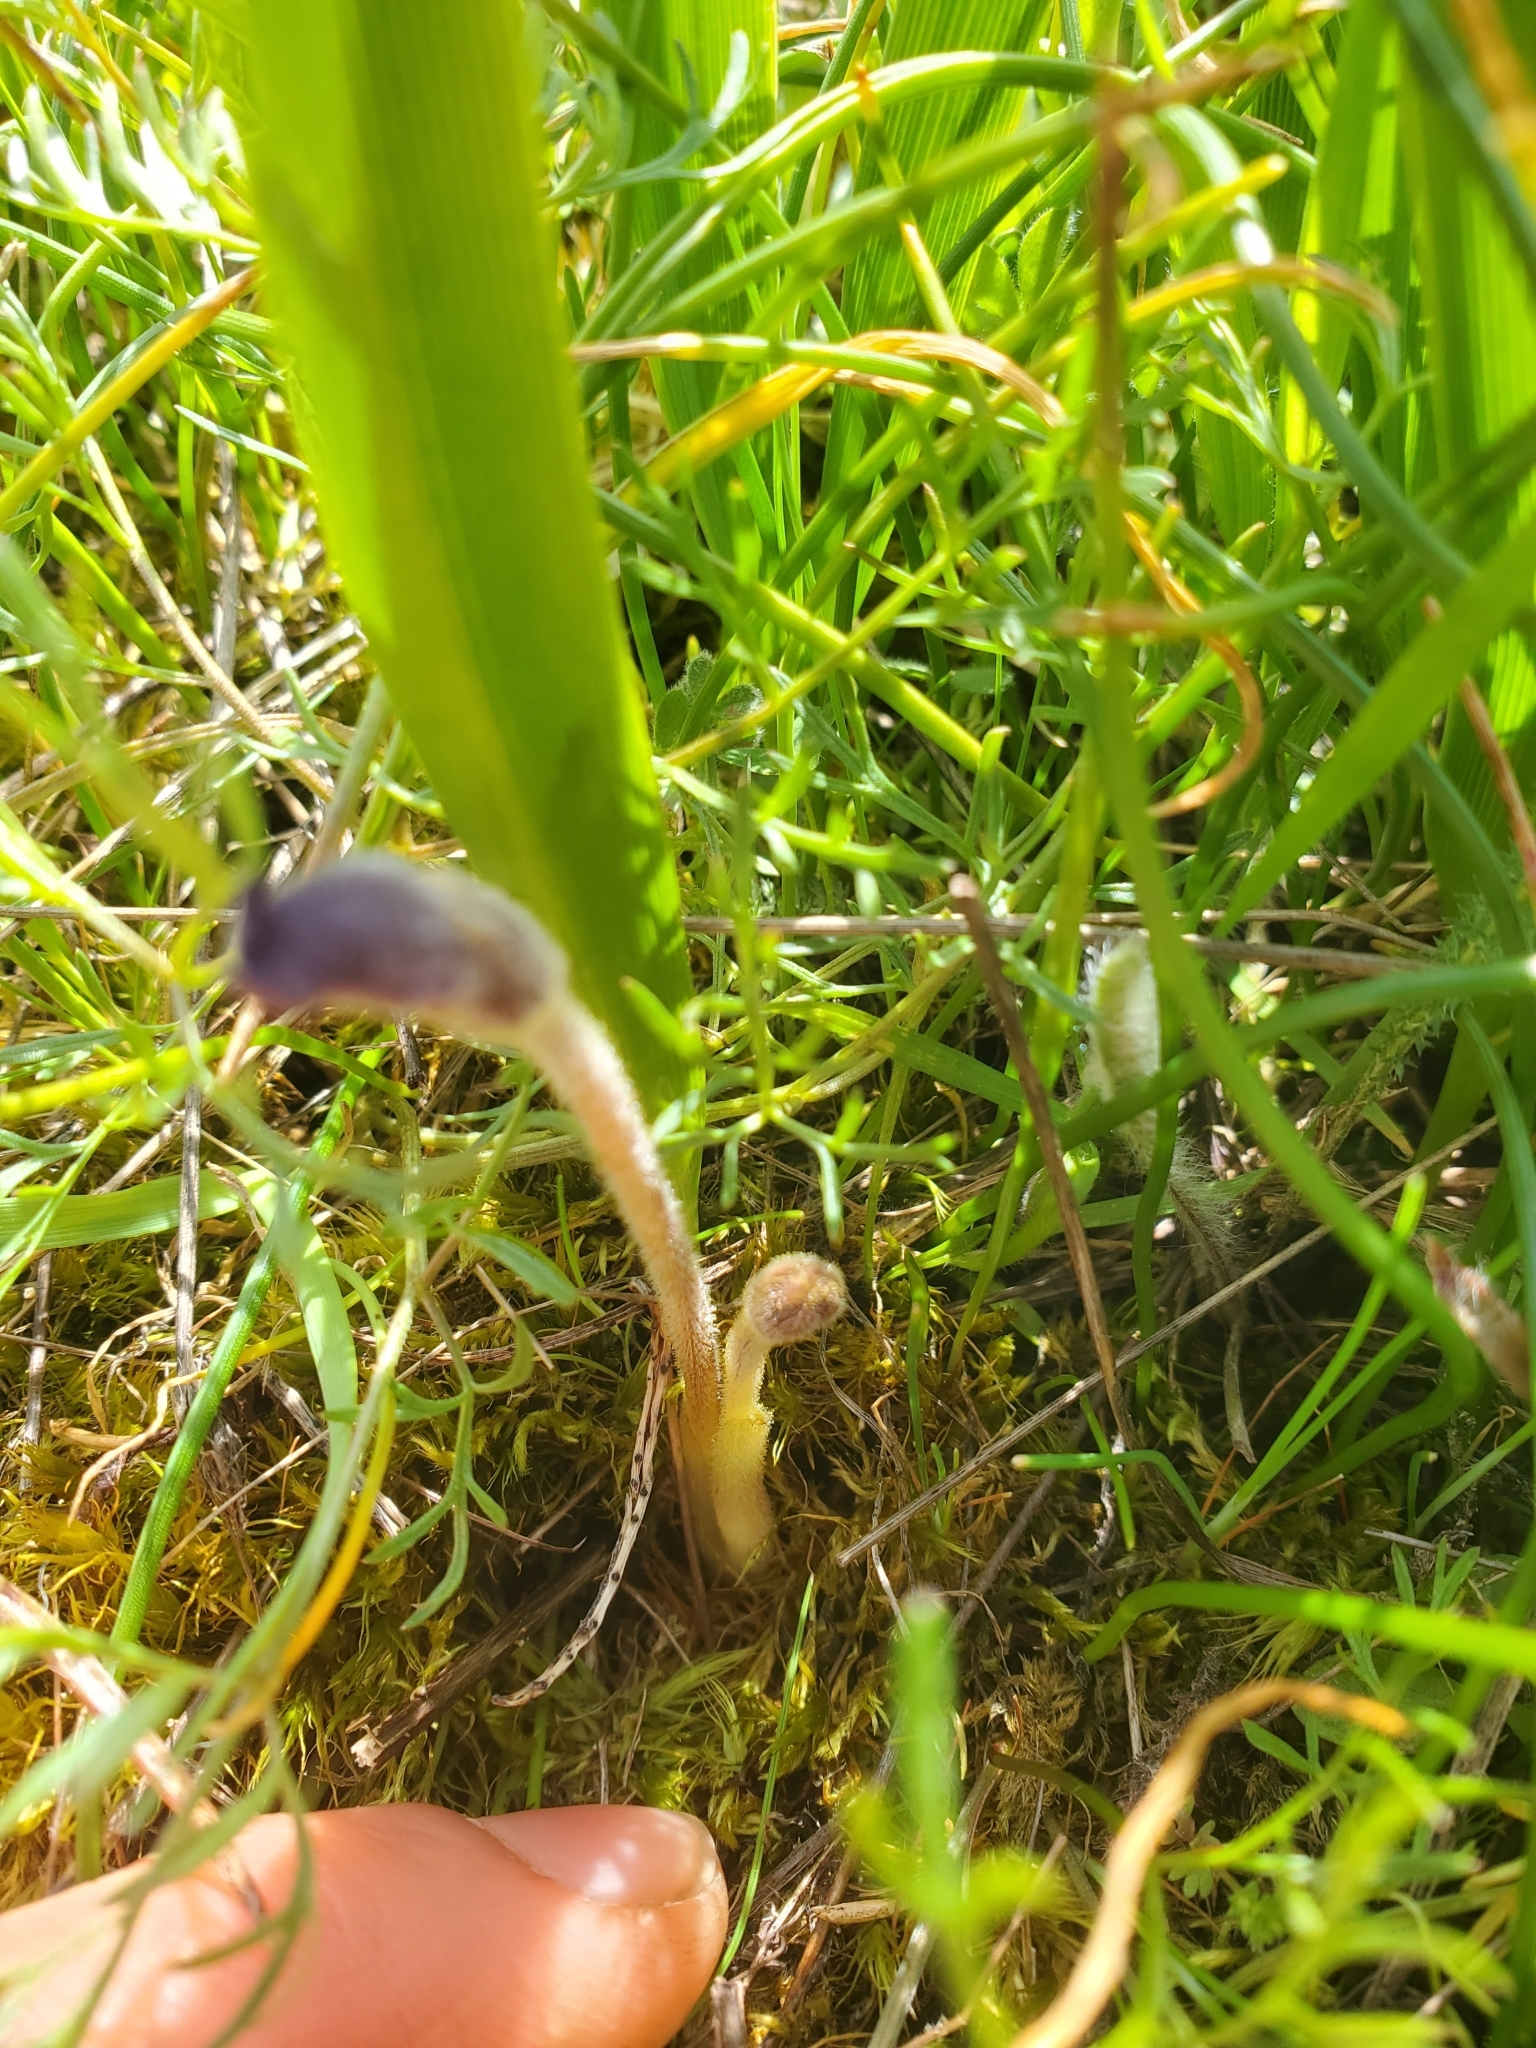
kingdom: Plantae
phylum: Tracheophyta
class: Magnoliopsida
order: Lamiales
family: Orobanchaceae
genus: Aphyllon
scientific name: Aphyllon uniflorum
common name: One-flowered broomrape
